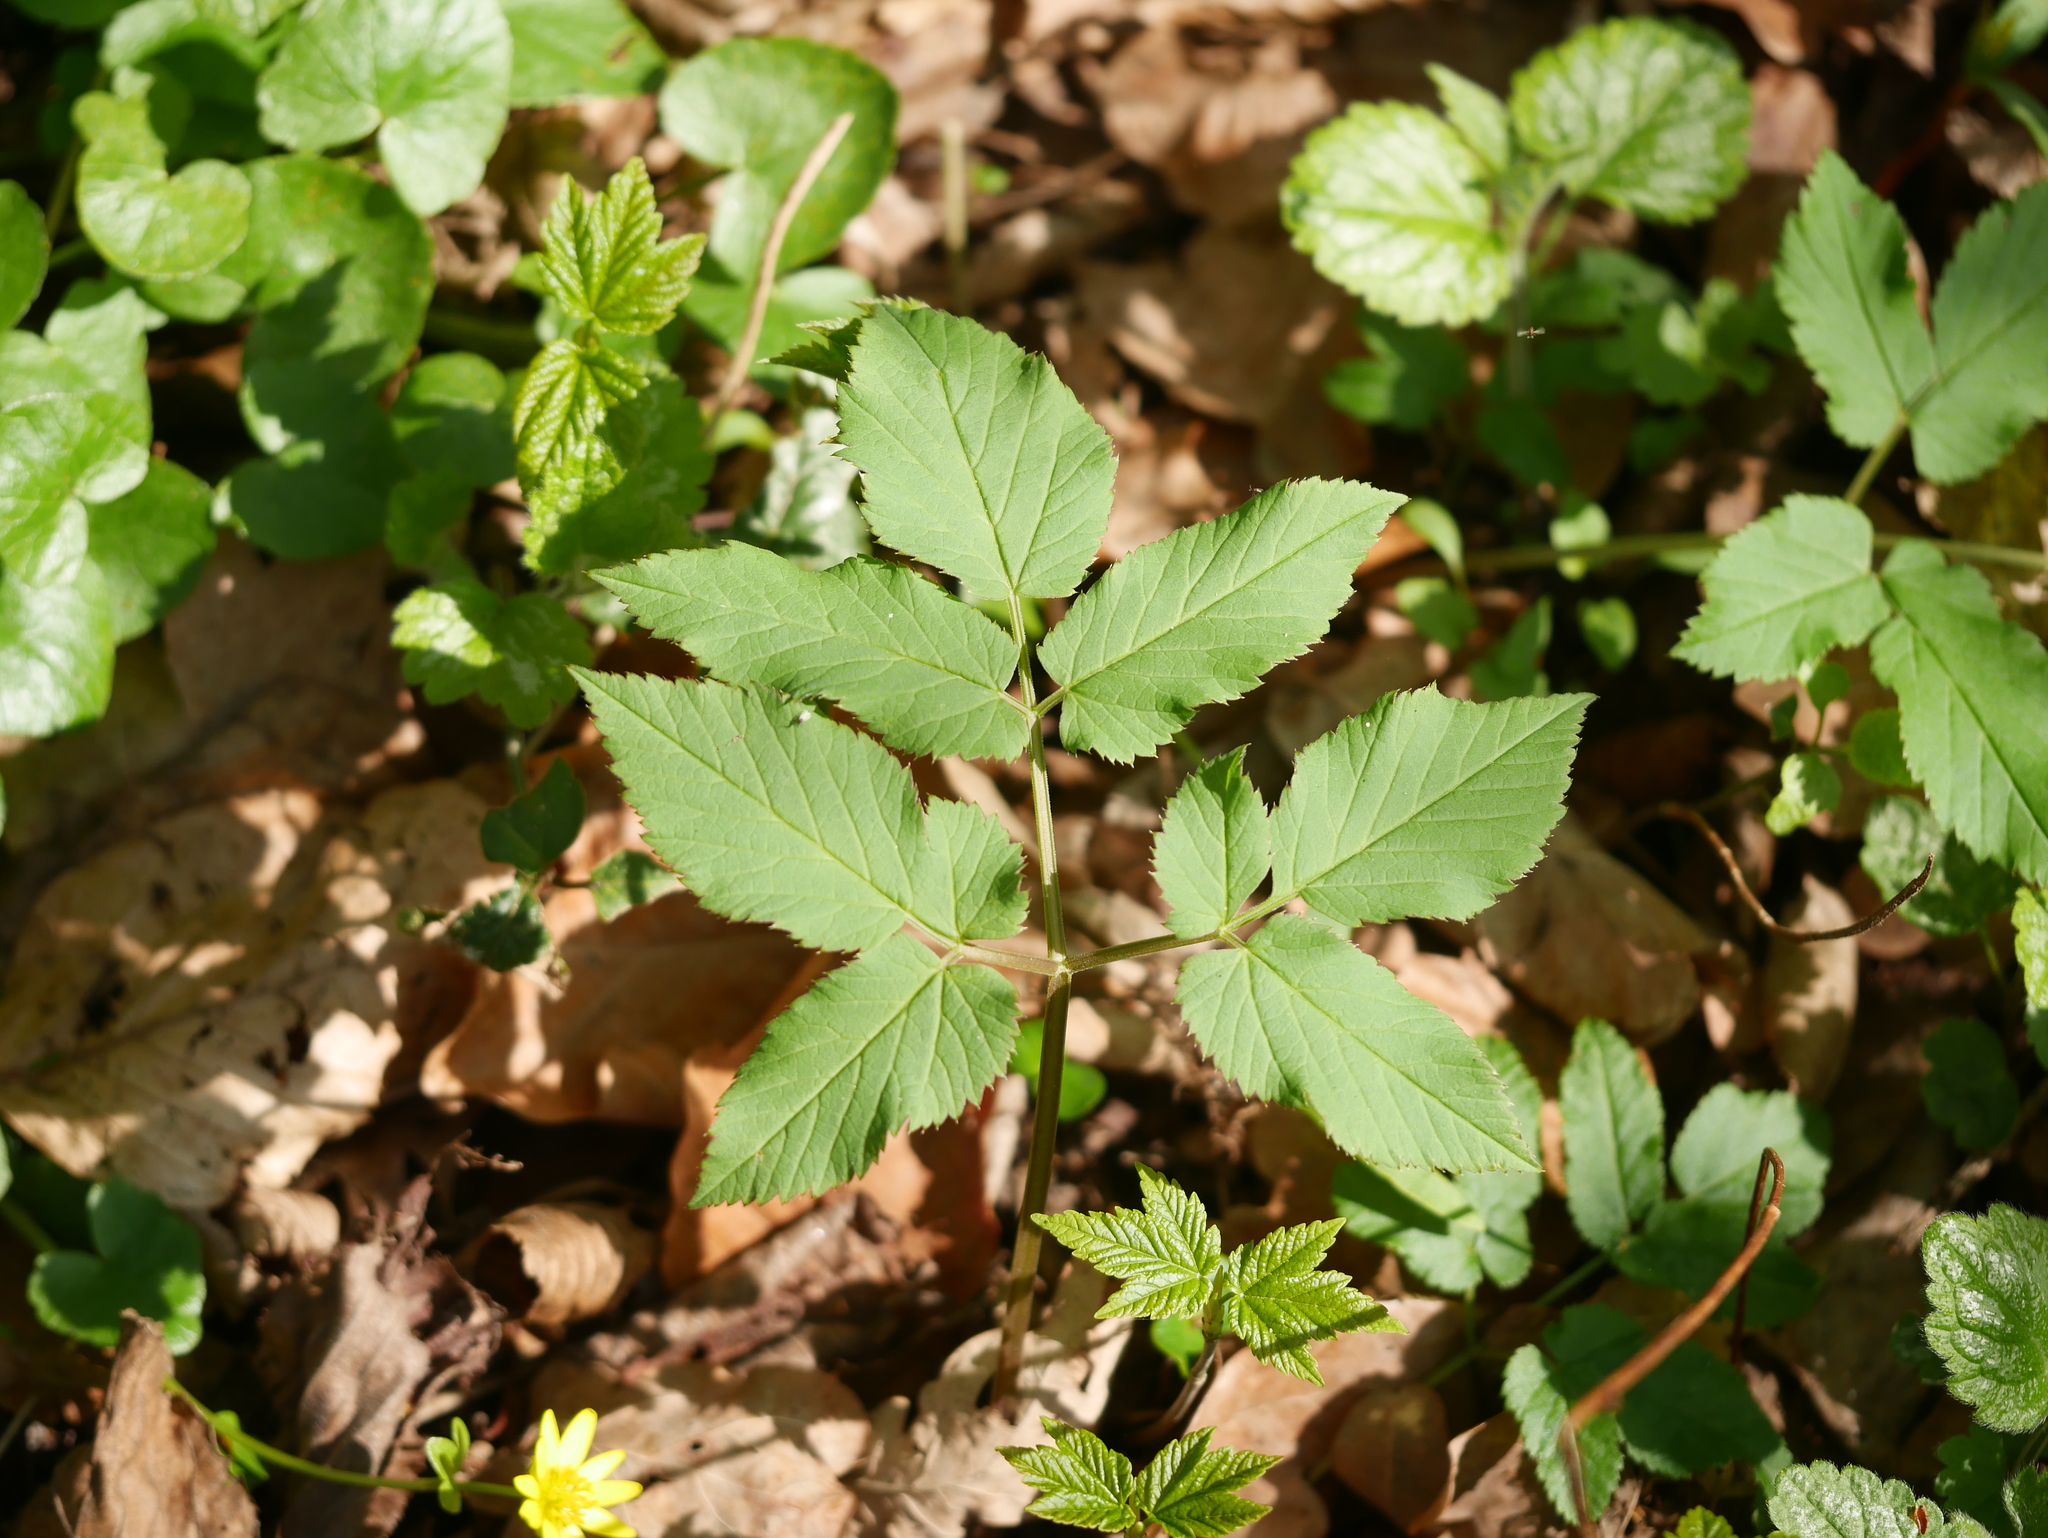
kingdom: Plantae
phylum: Tracheophyta
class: Magnoliopsida
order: Apiales
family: Apiaceae
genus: Aegopodium
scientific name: Aegopodium podagraria
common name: Ground-elder
